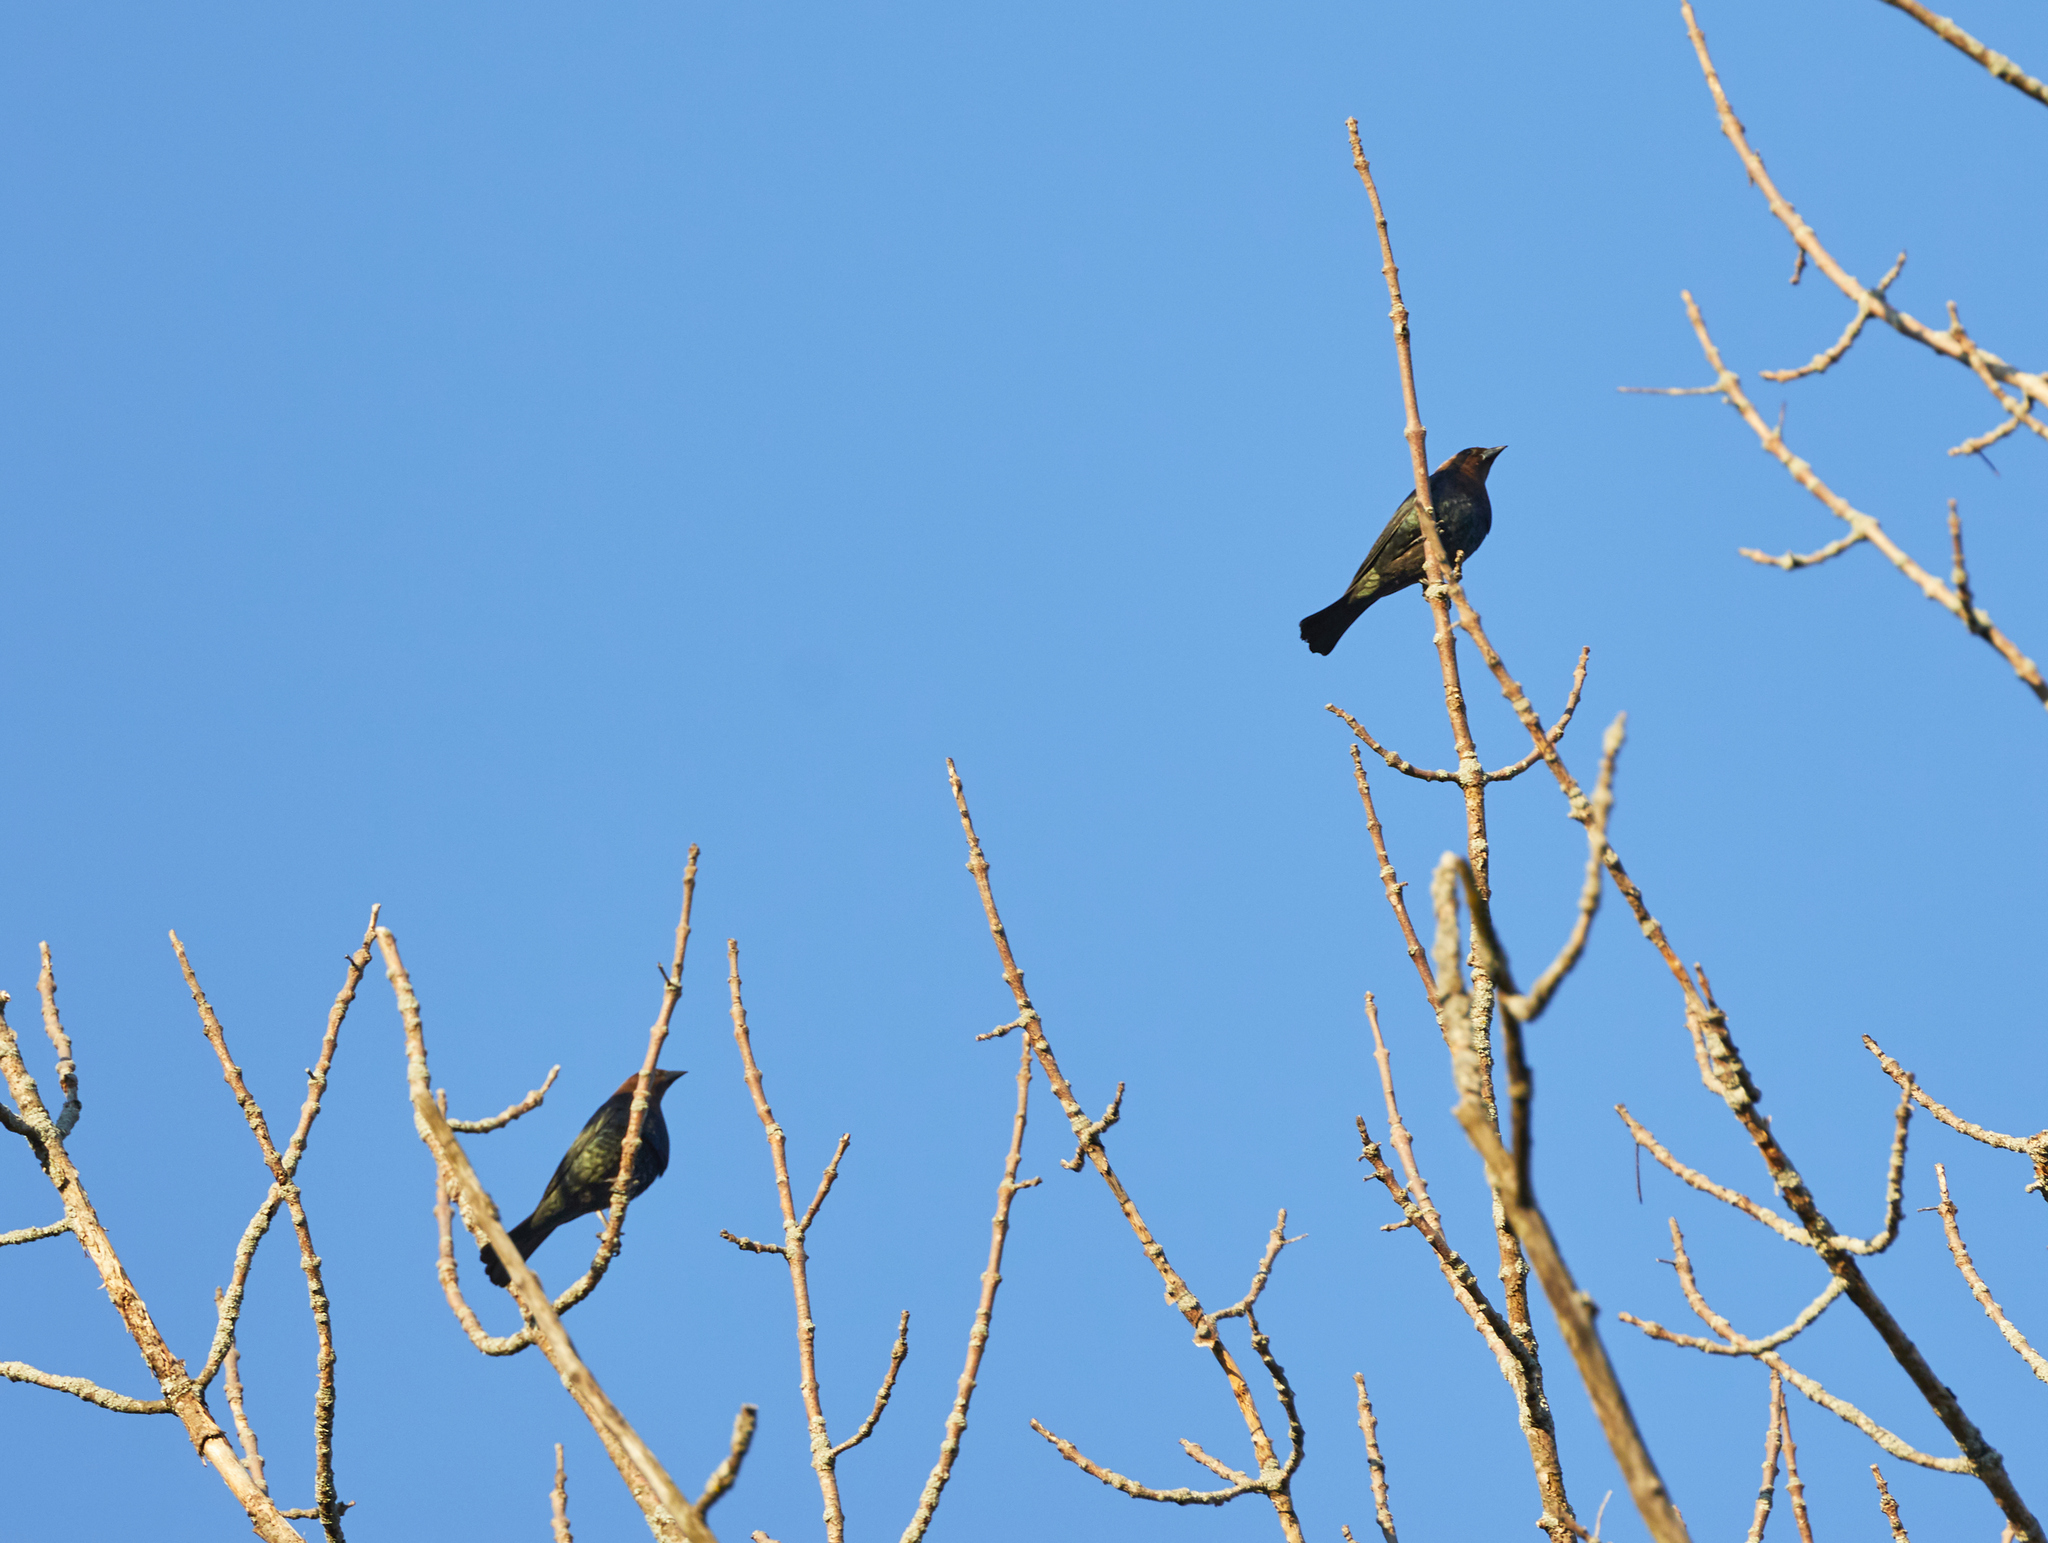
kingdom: Animalia
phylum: Chordata
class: Aves
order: Passeriformes
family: Icteridae
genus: Molothrus
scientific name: Molothrus ater
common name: Brown-headed cowbird
